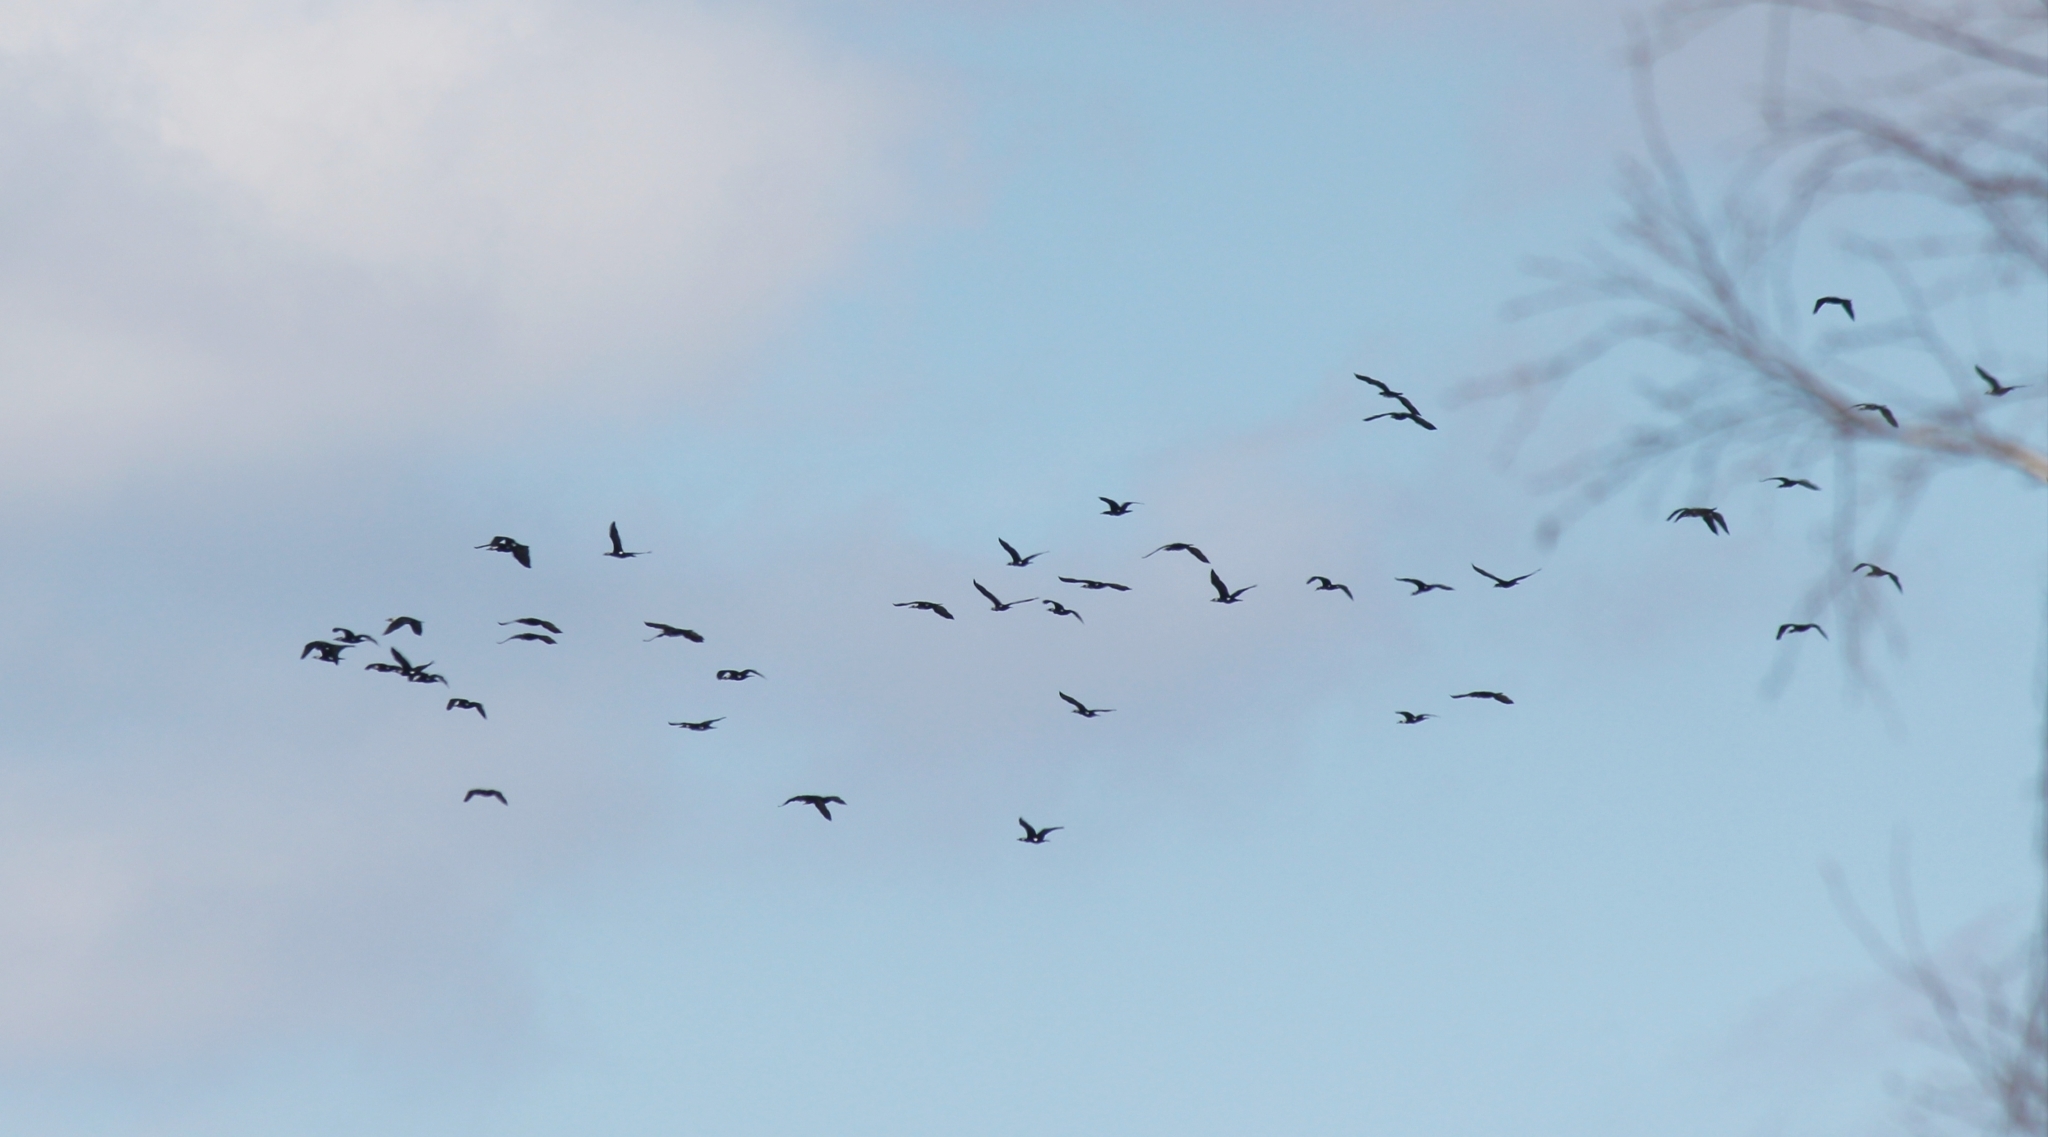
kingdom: Animalia
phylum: Chordata
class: Aves
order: Suliformes
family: Phalacrocoracidae
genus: Phalacrocorax
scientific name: Phalacrocorax carbo
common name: Great cormorant
